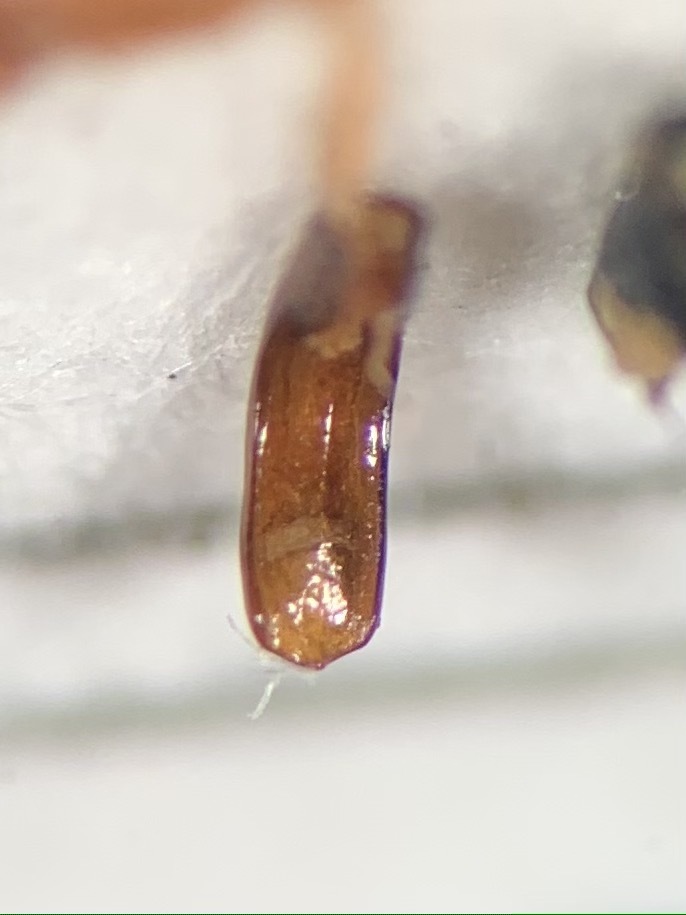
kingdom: Animalia
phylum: Arthropoda
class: Insecta
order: Coleoptera
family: Dasytidae
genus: Psilothrix
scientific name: Psilothrix viridicoerulea
